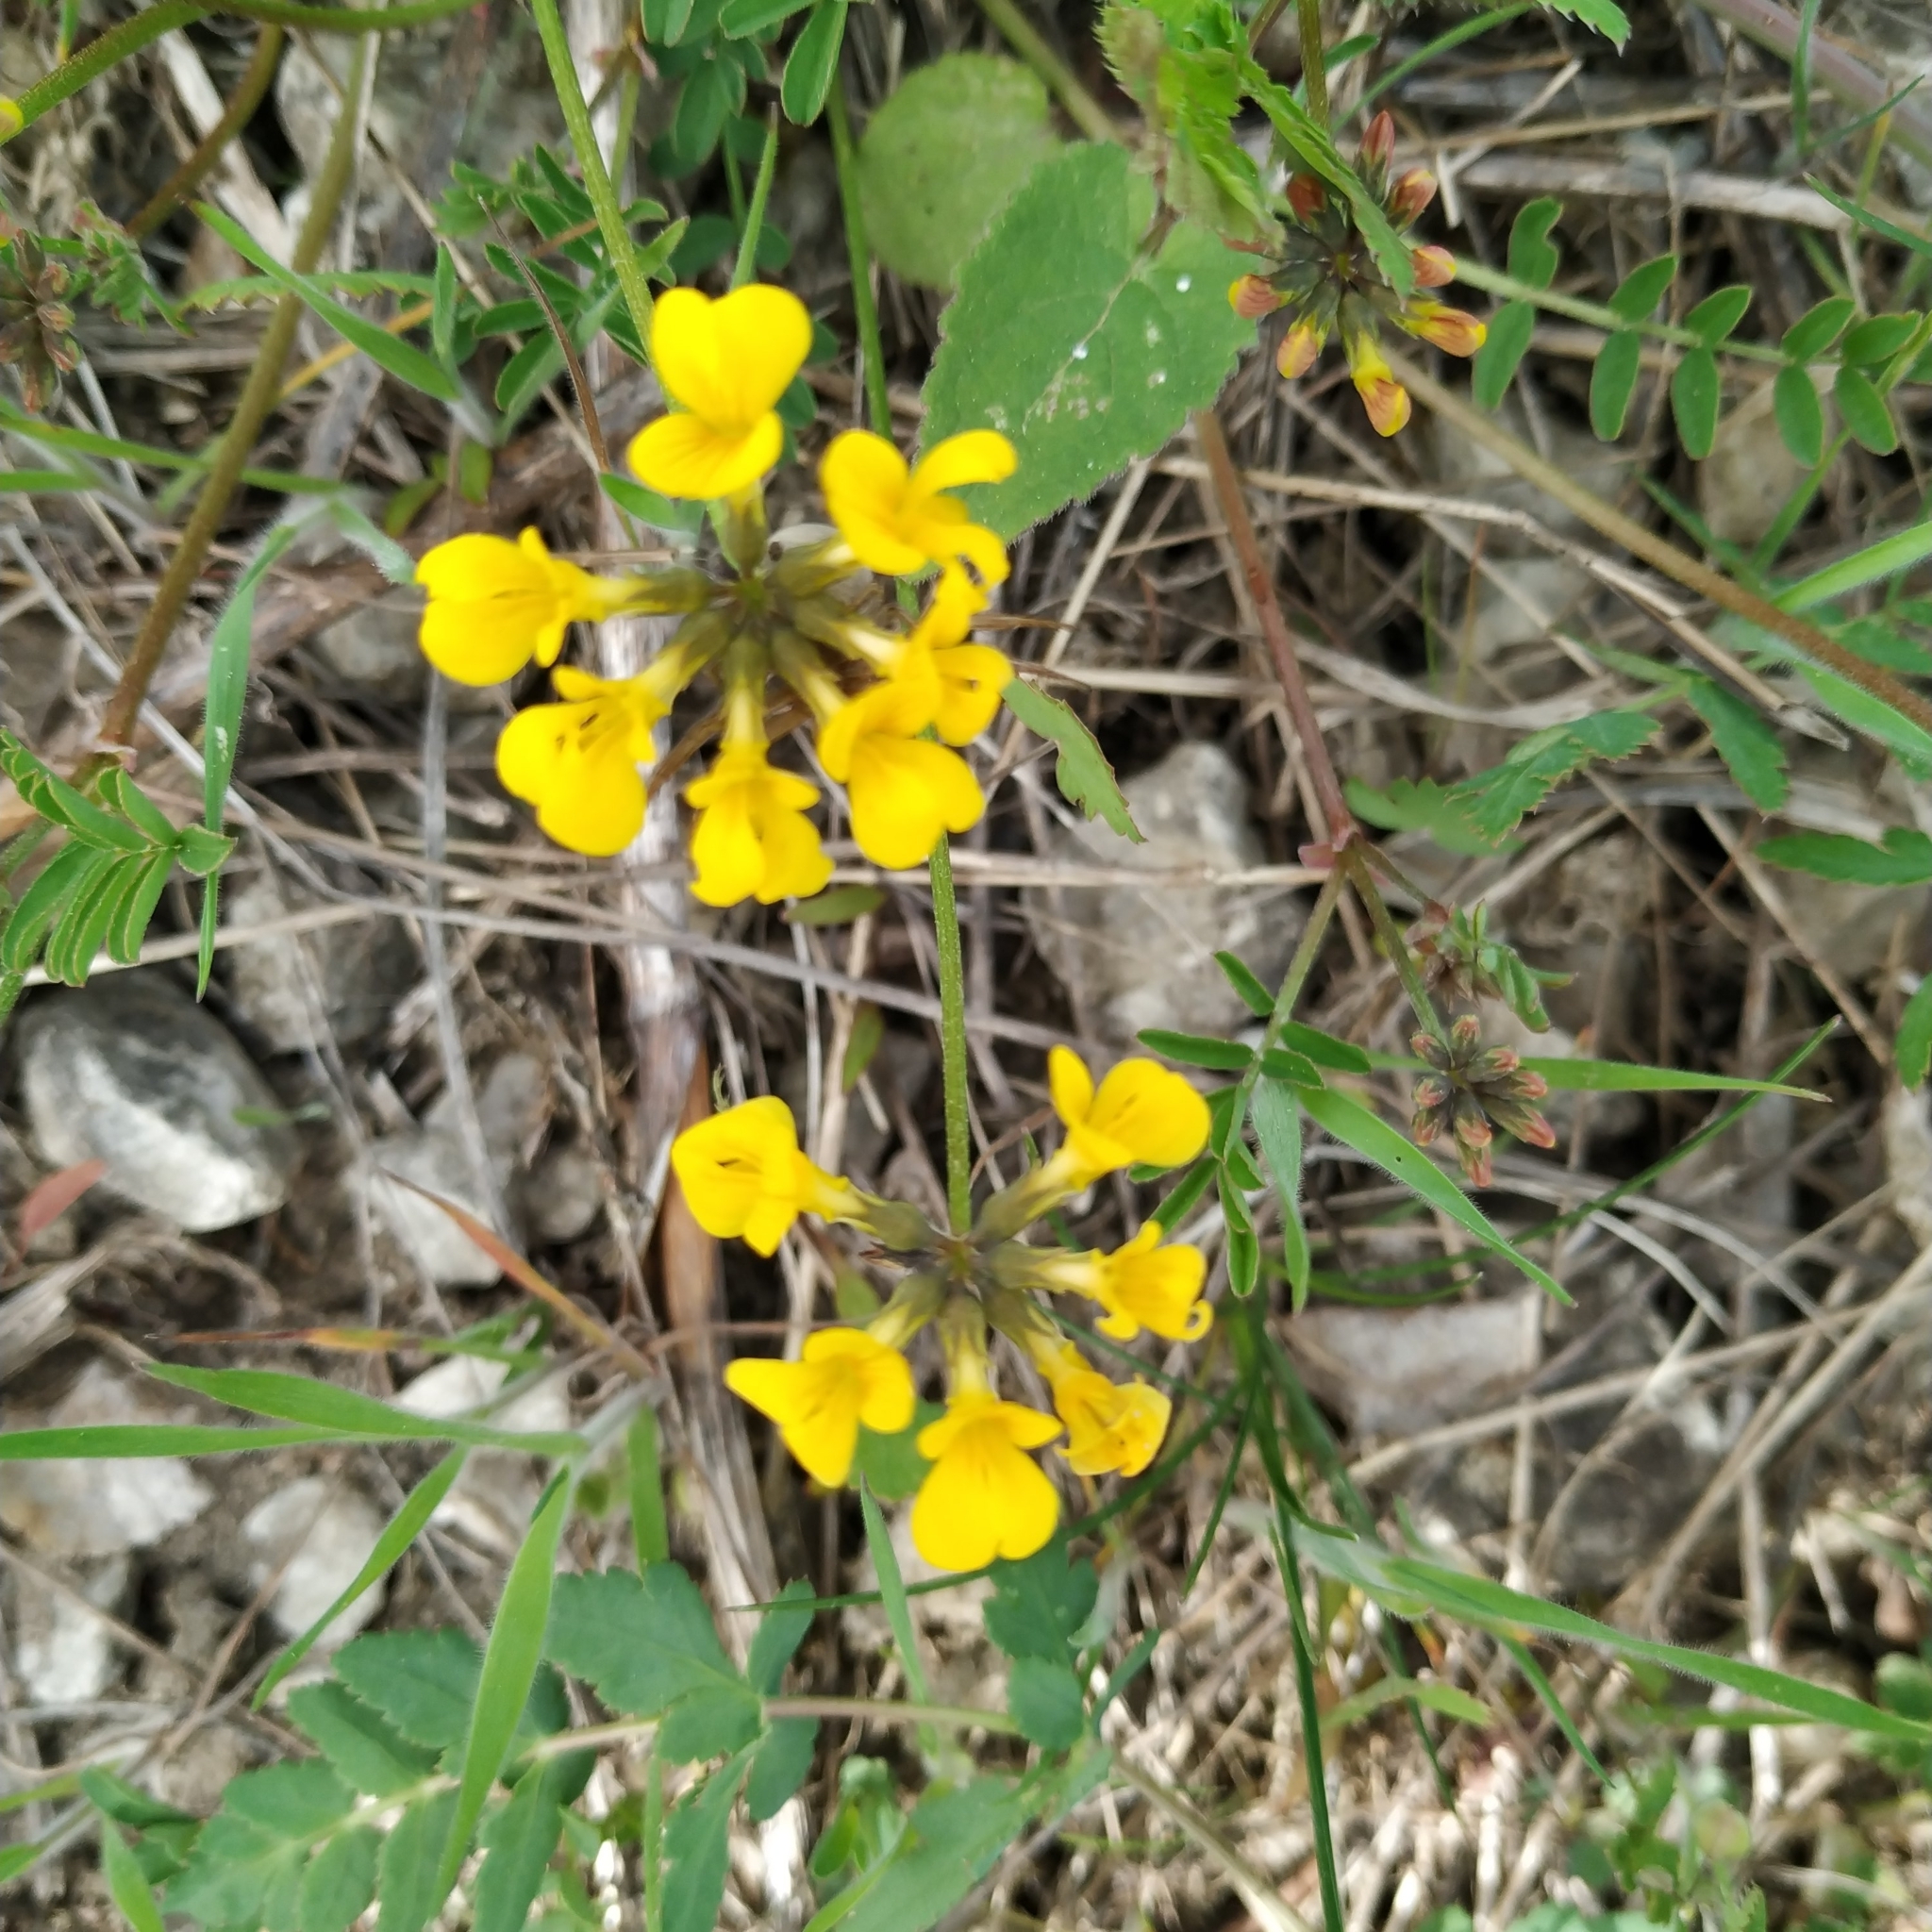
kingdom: Plantae
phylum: Tracheophyta
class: Magnoliopsida
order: Fabales
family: Fabaceae
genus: Hippocrepis
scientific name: Hippocrepis comosa
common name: Horseshoe vetch
